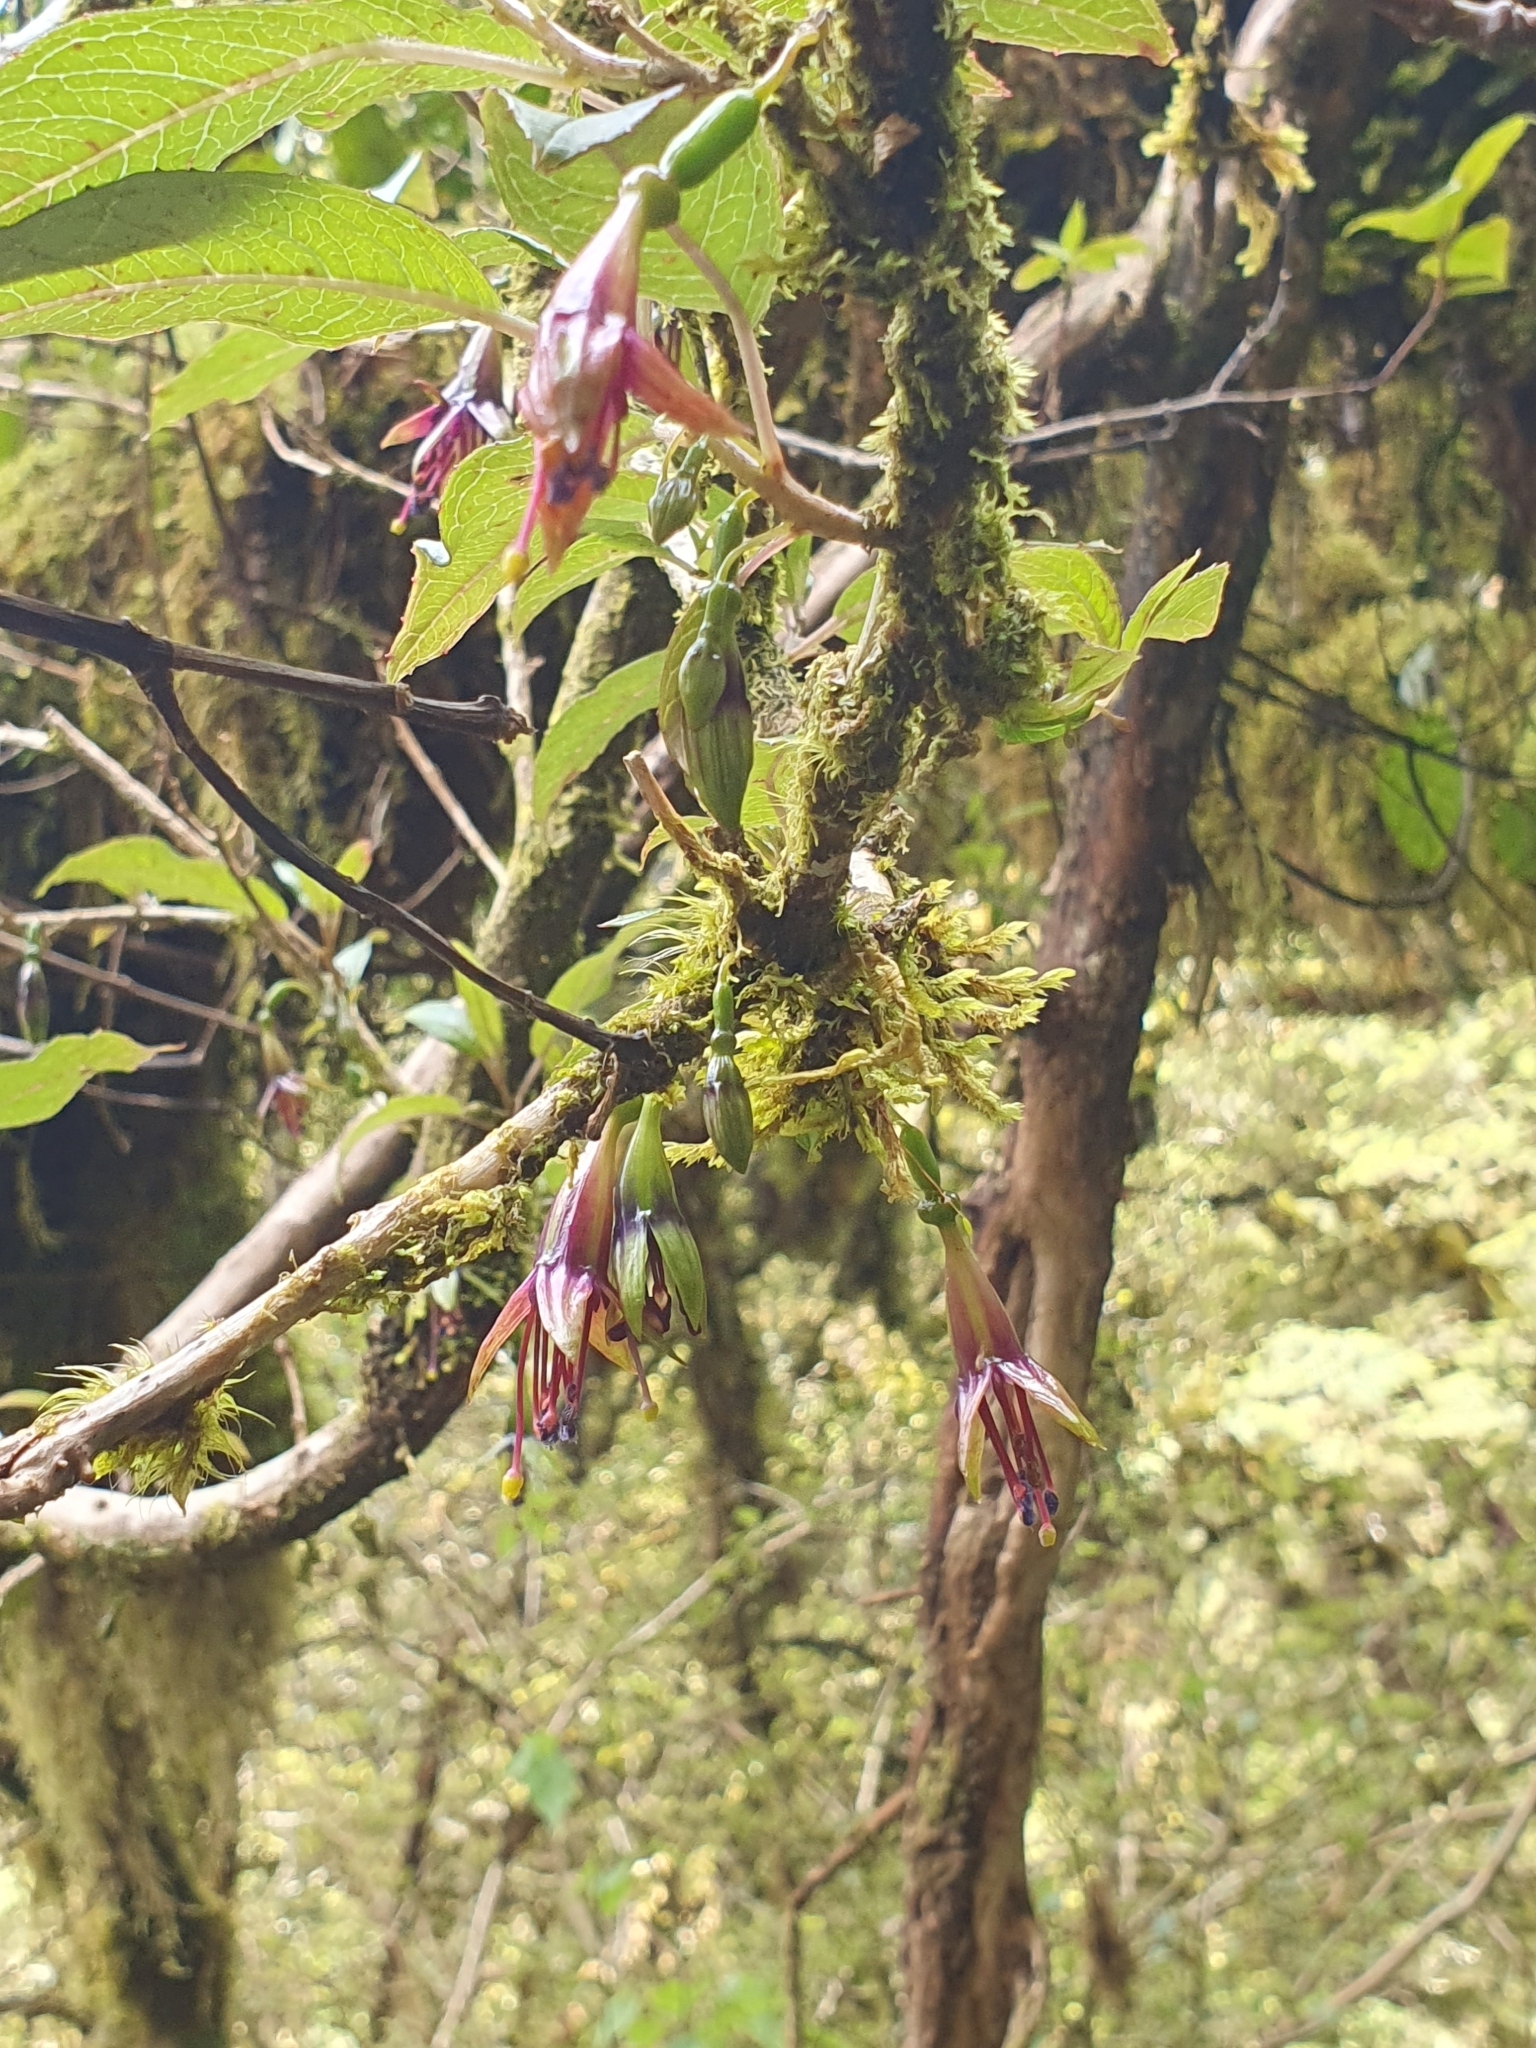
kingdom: Plantae
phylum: Tracheophyta
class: Magnoliopsida
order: Myrtales
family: Onagraceae
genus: Fuchsia
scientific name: Fuchsia excorticata
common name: Tree fuchsia
